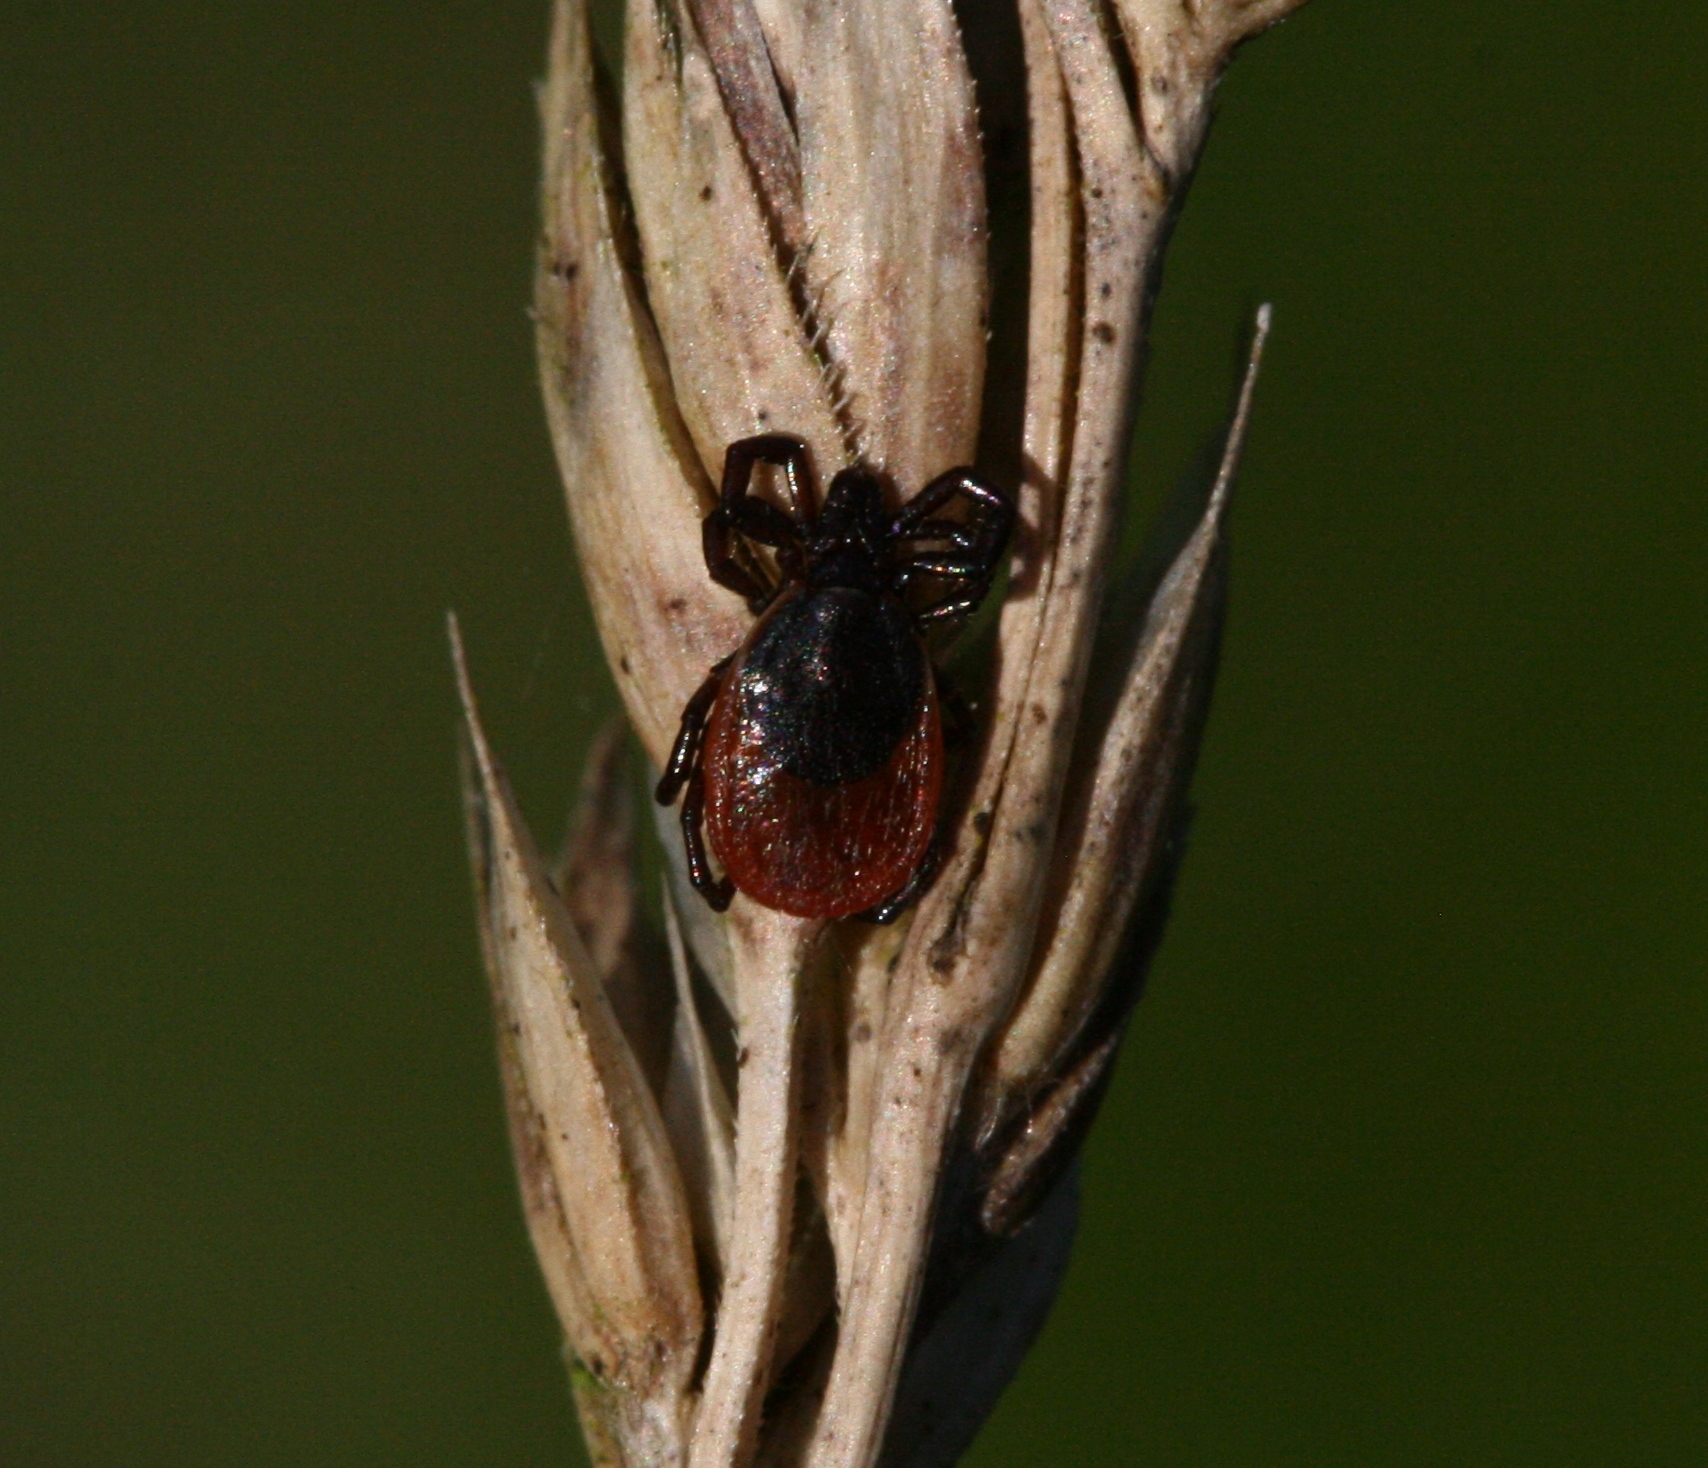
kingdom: Animalia
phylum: Arthropoda
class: Arachnida
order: Ixodida
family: Ixodidae
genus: Ixodes
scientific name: Ixodes ricinus
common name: Castor bean tick
